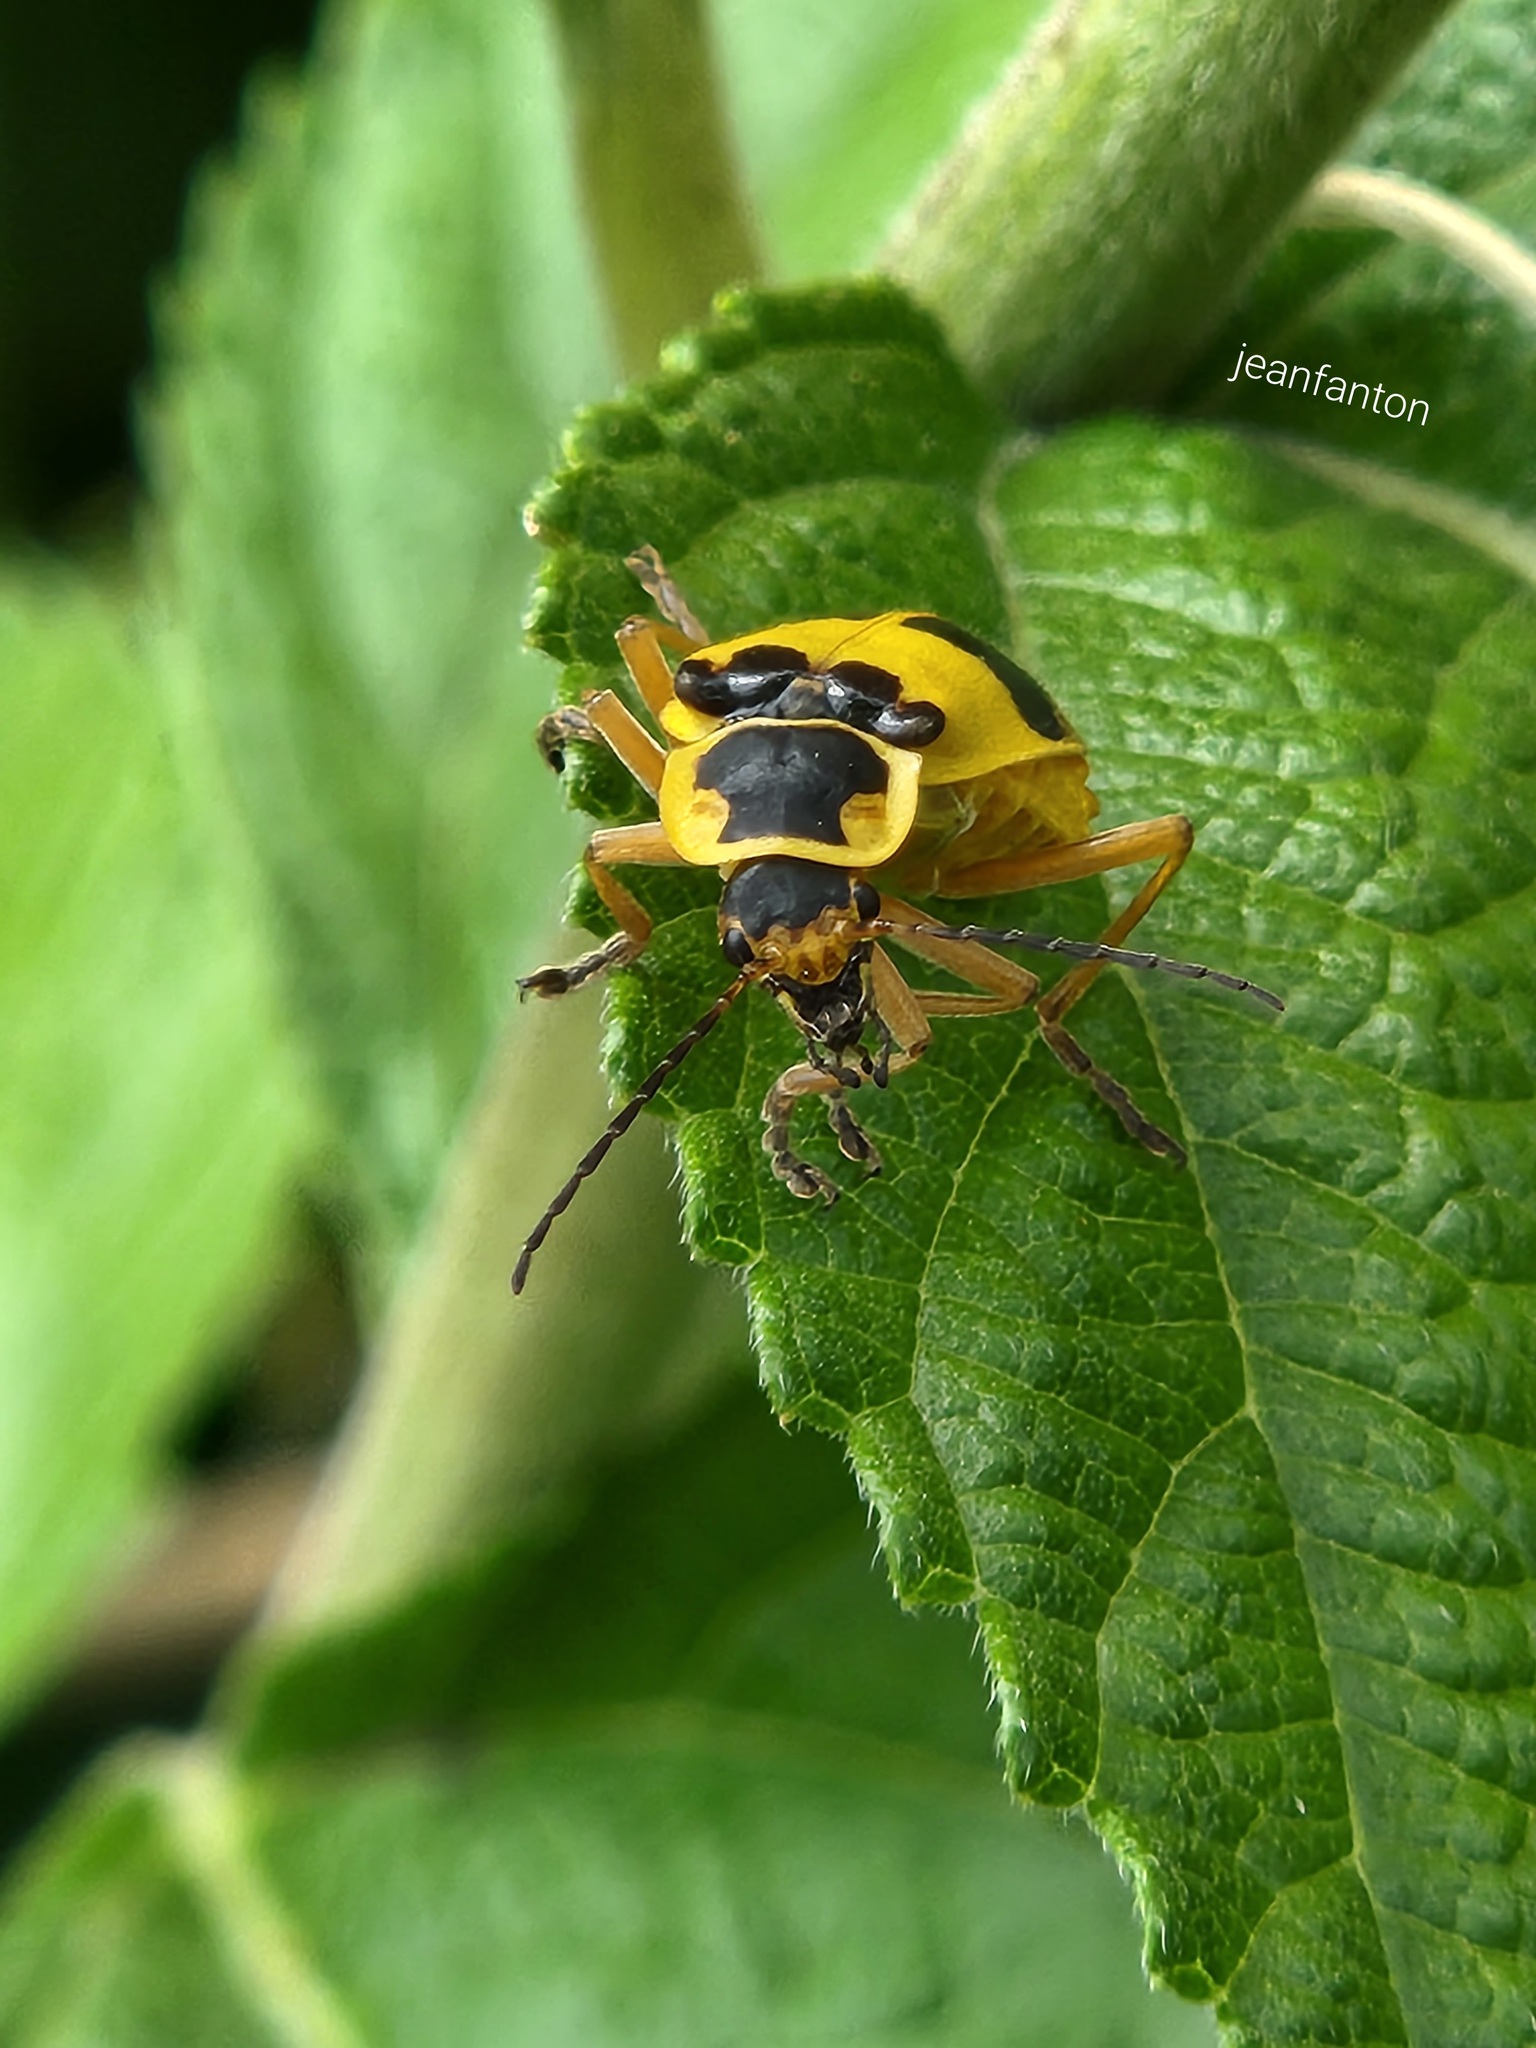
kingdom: Animalia
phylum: Arthropoda
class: Insecta
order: Coleoptera
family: Cantharidae
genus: Chauliognathus
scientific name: Chauliognathus
